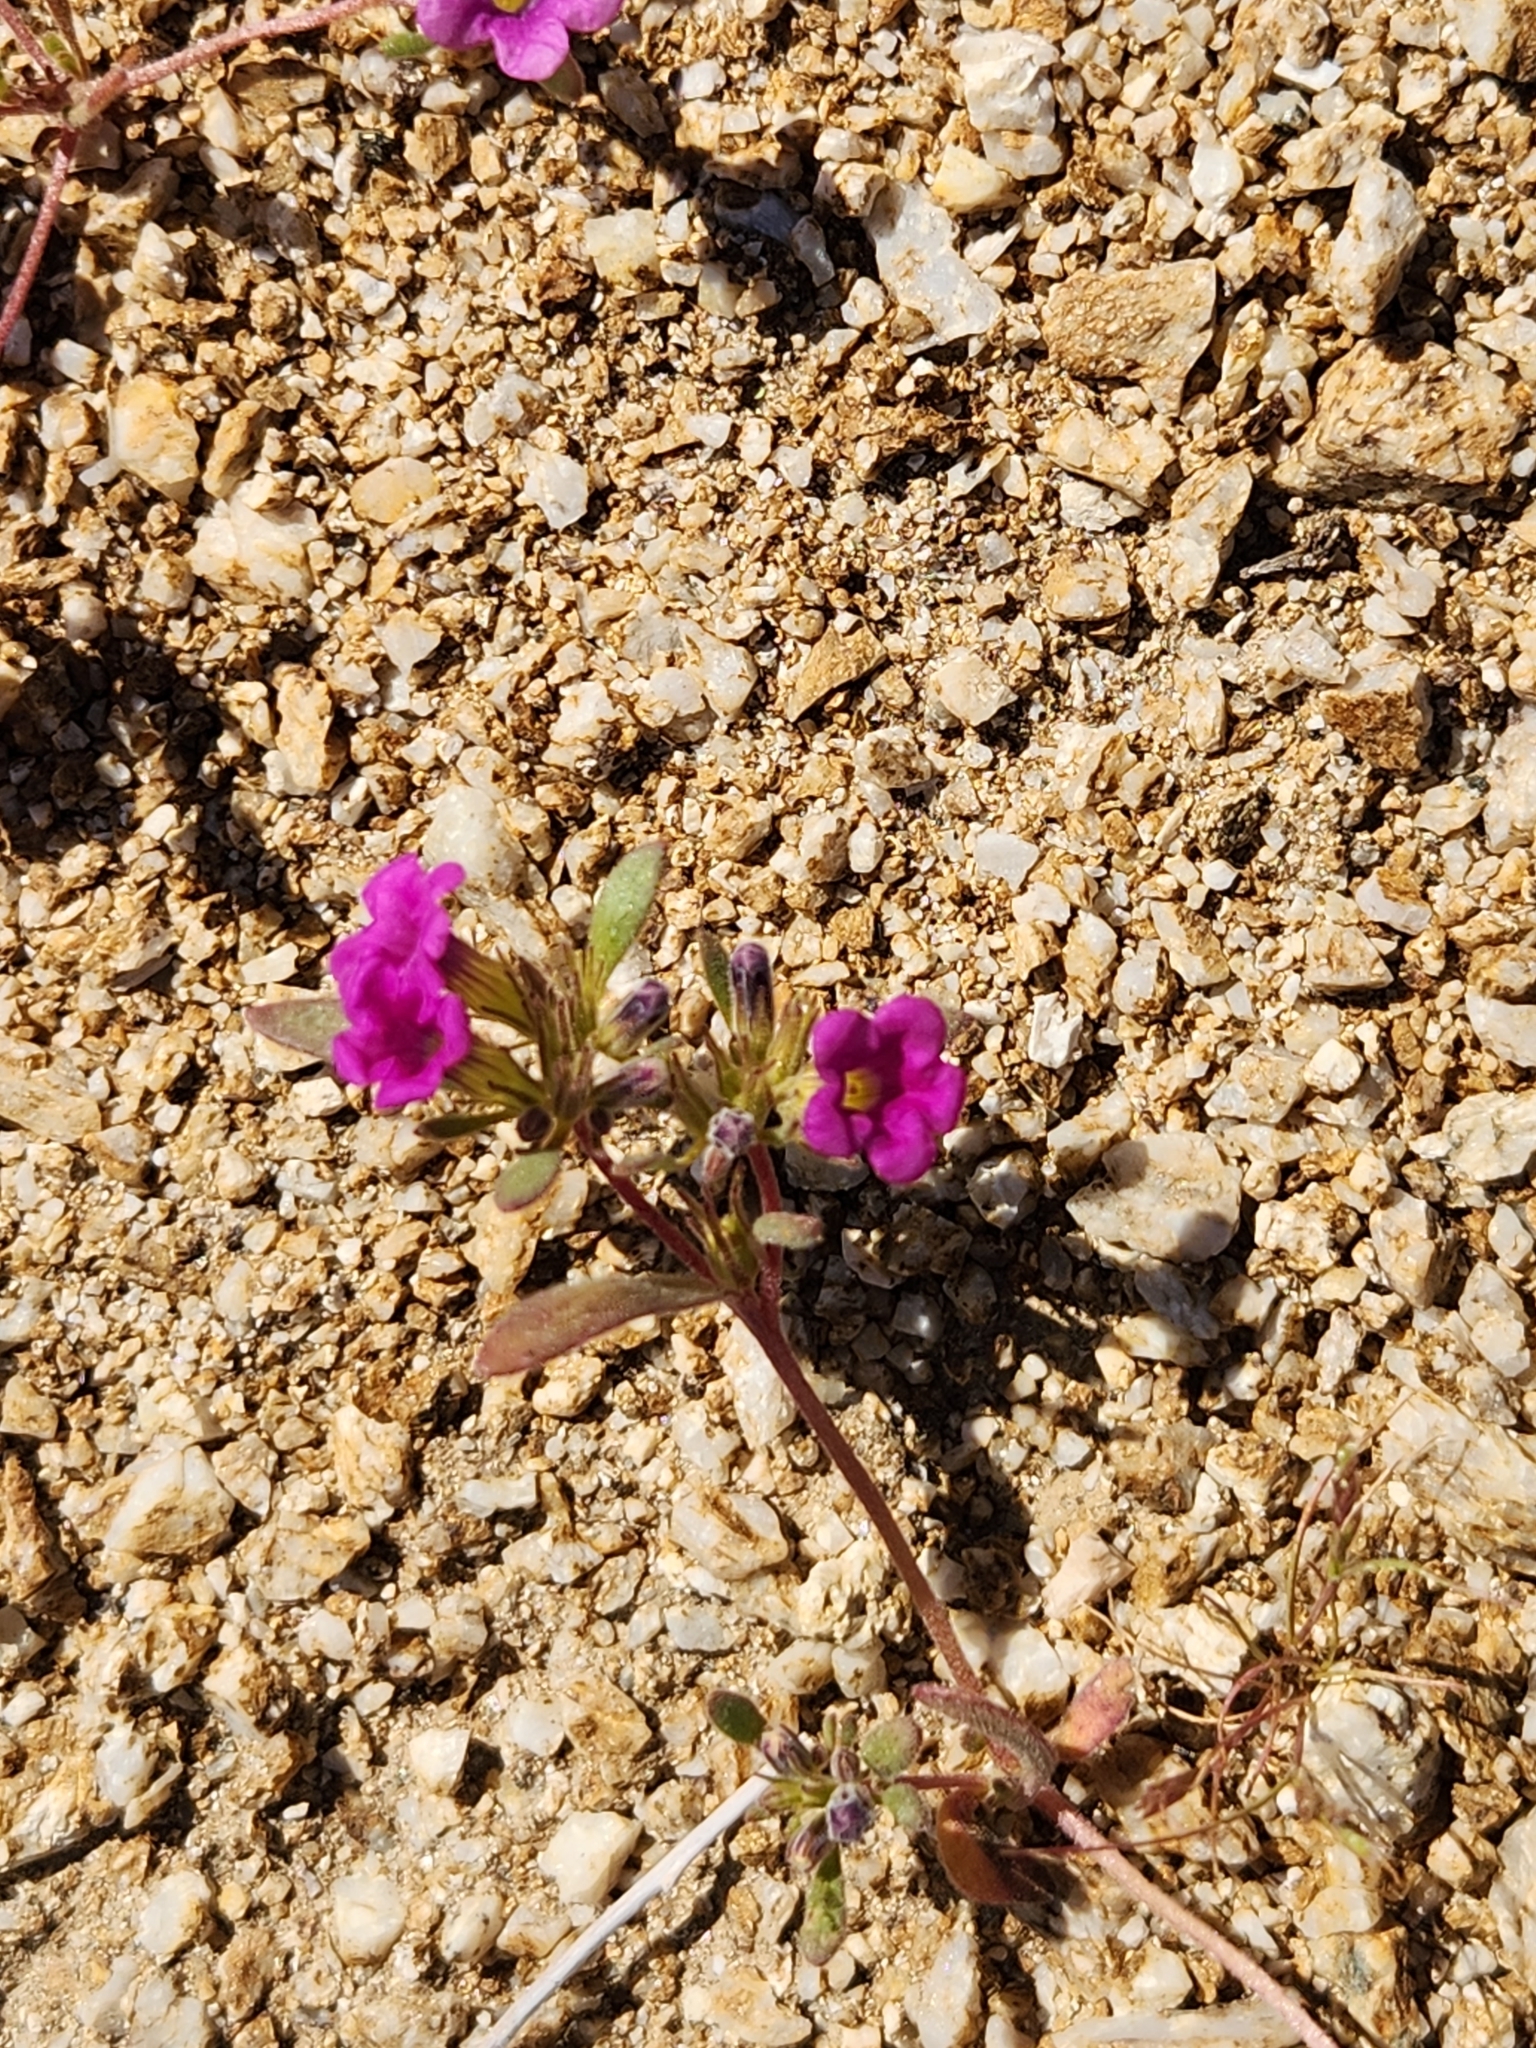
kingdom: Plantae
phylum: Tracheophyta
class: Magnoliopsida
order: Boraginales
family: Namaceae
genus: Nama
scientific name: Nama demissa
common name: Leafy nama
